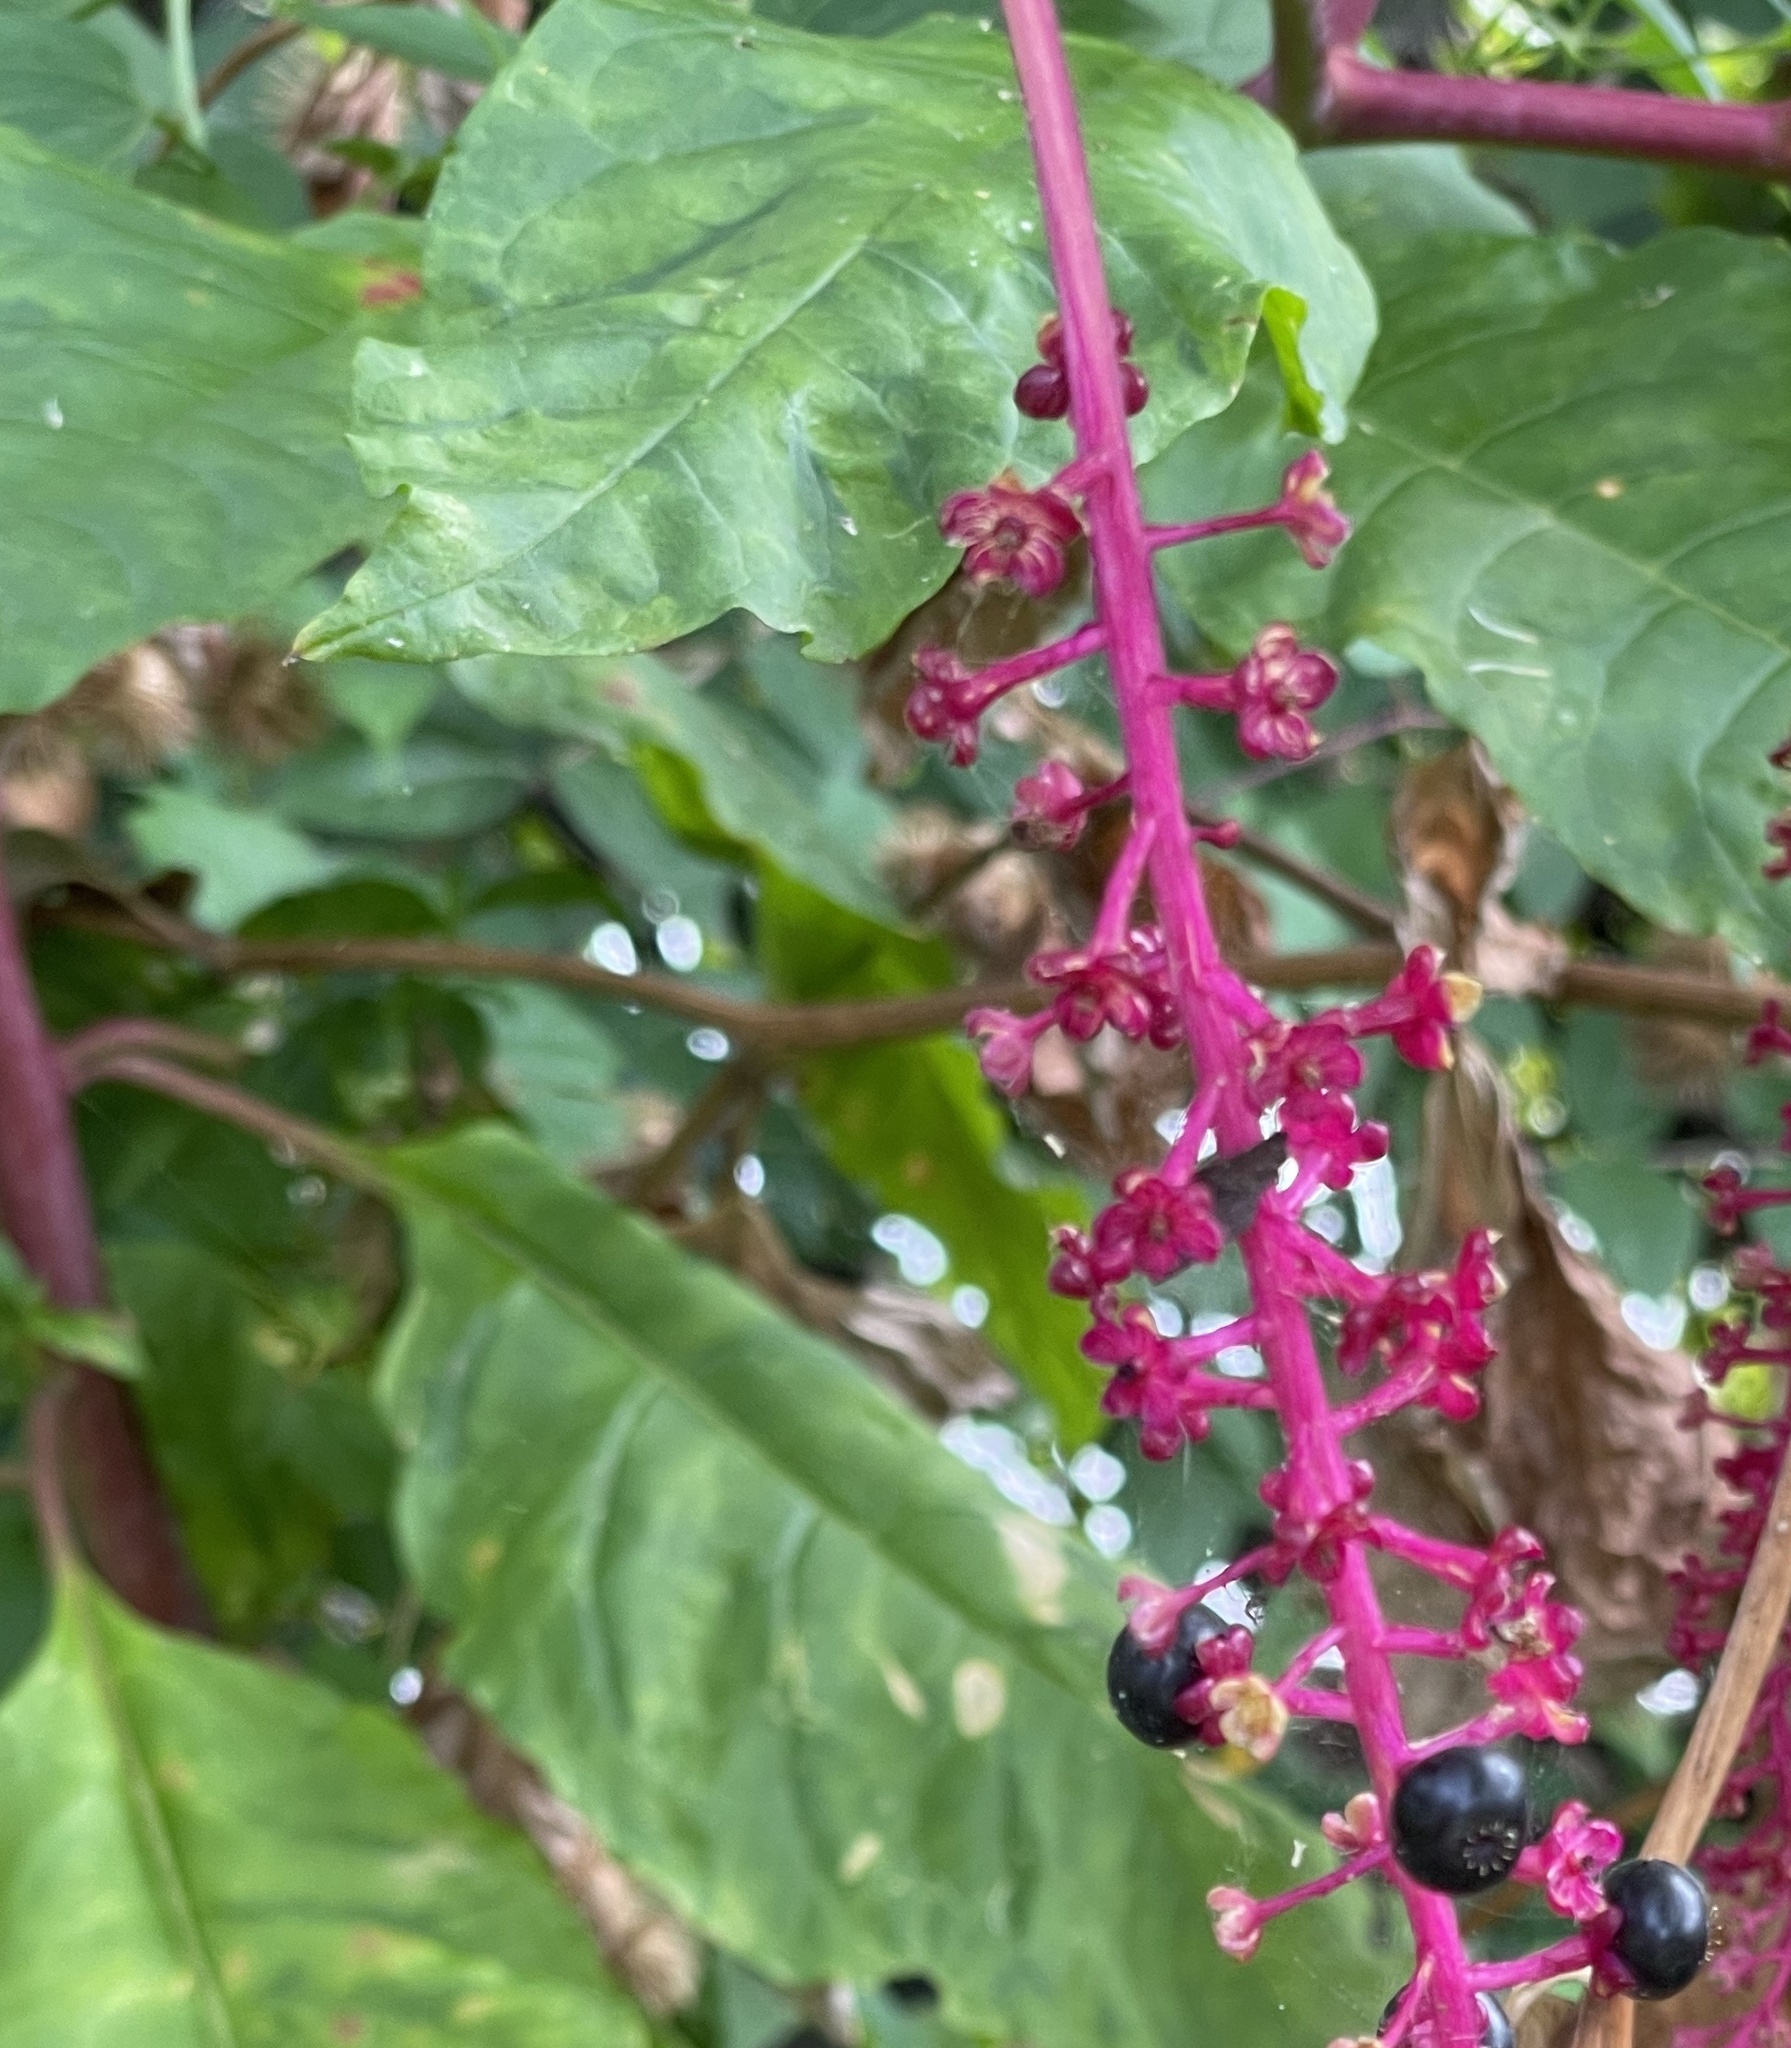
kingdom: Plantae
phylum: Tracheophyta
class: Magnoliopsida
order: Caryophyllales
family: Phytolaccaceae
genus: Phytolacca
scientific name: Phytolacca americana
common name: American pokeweed
